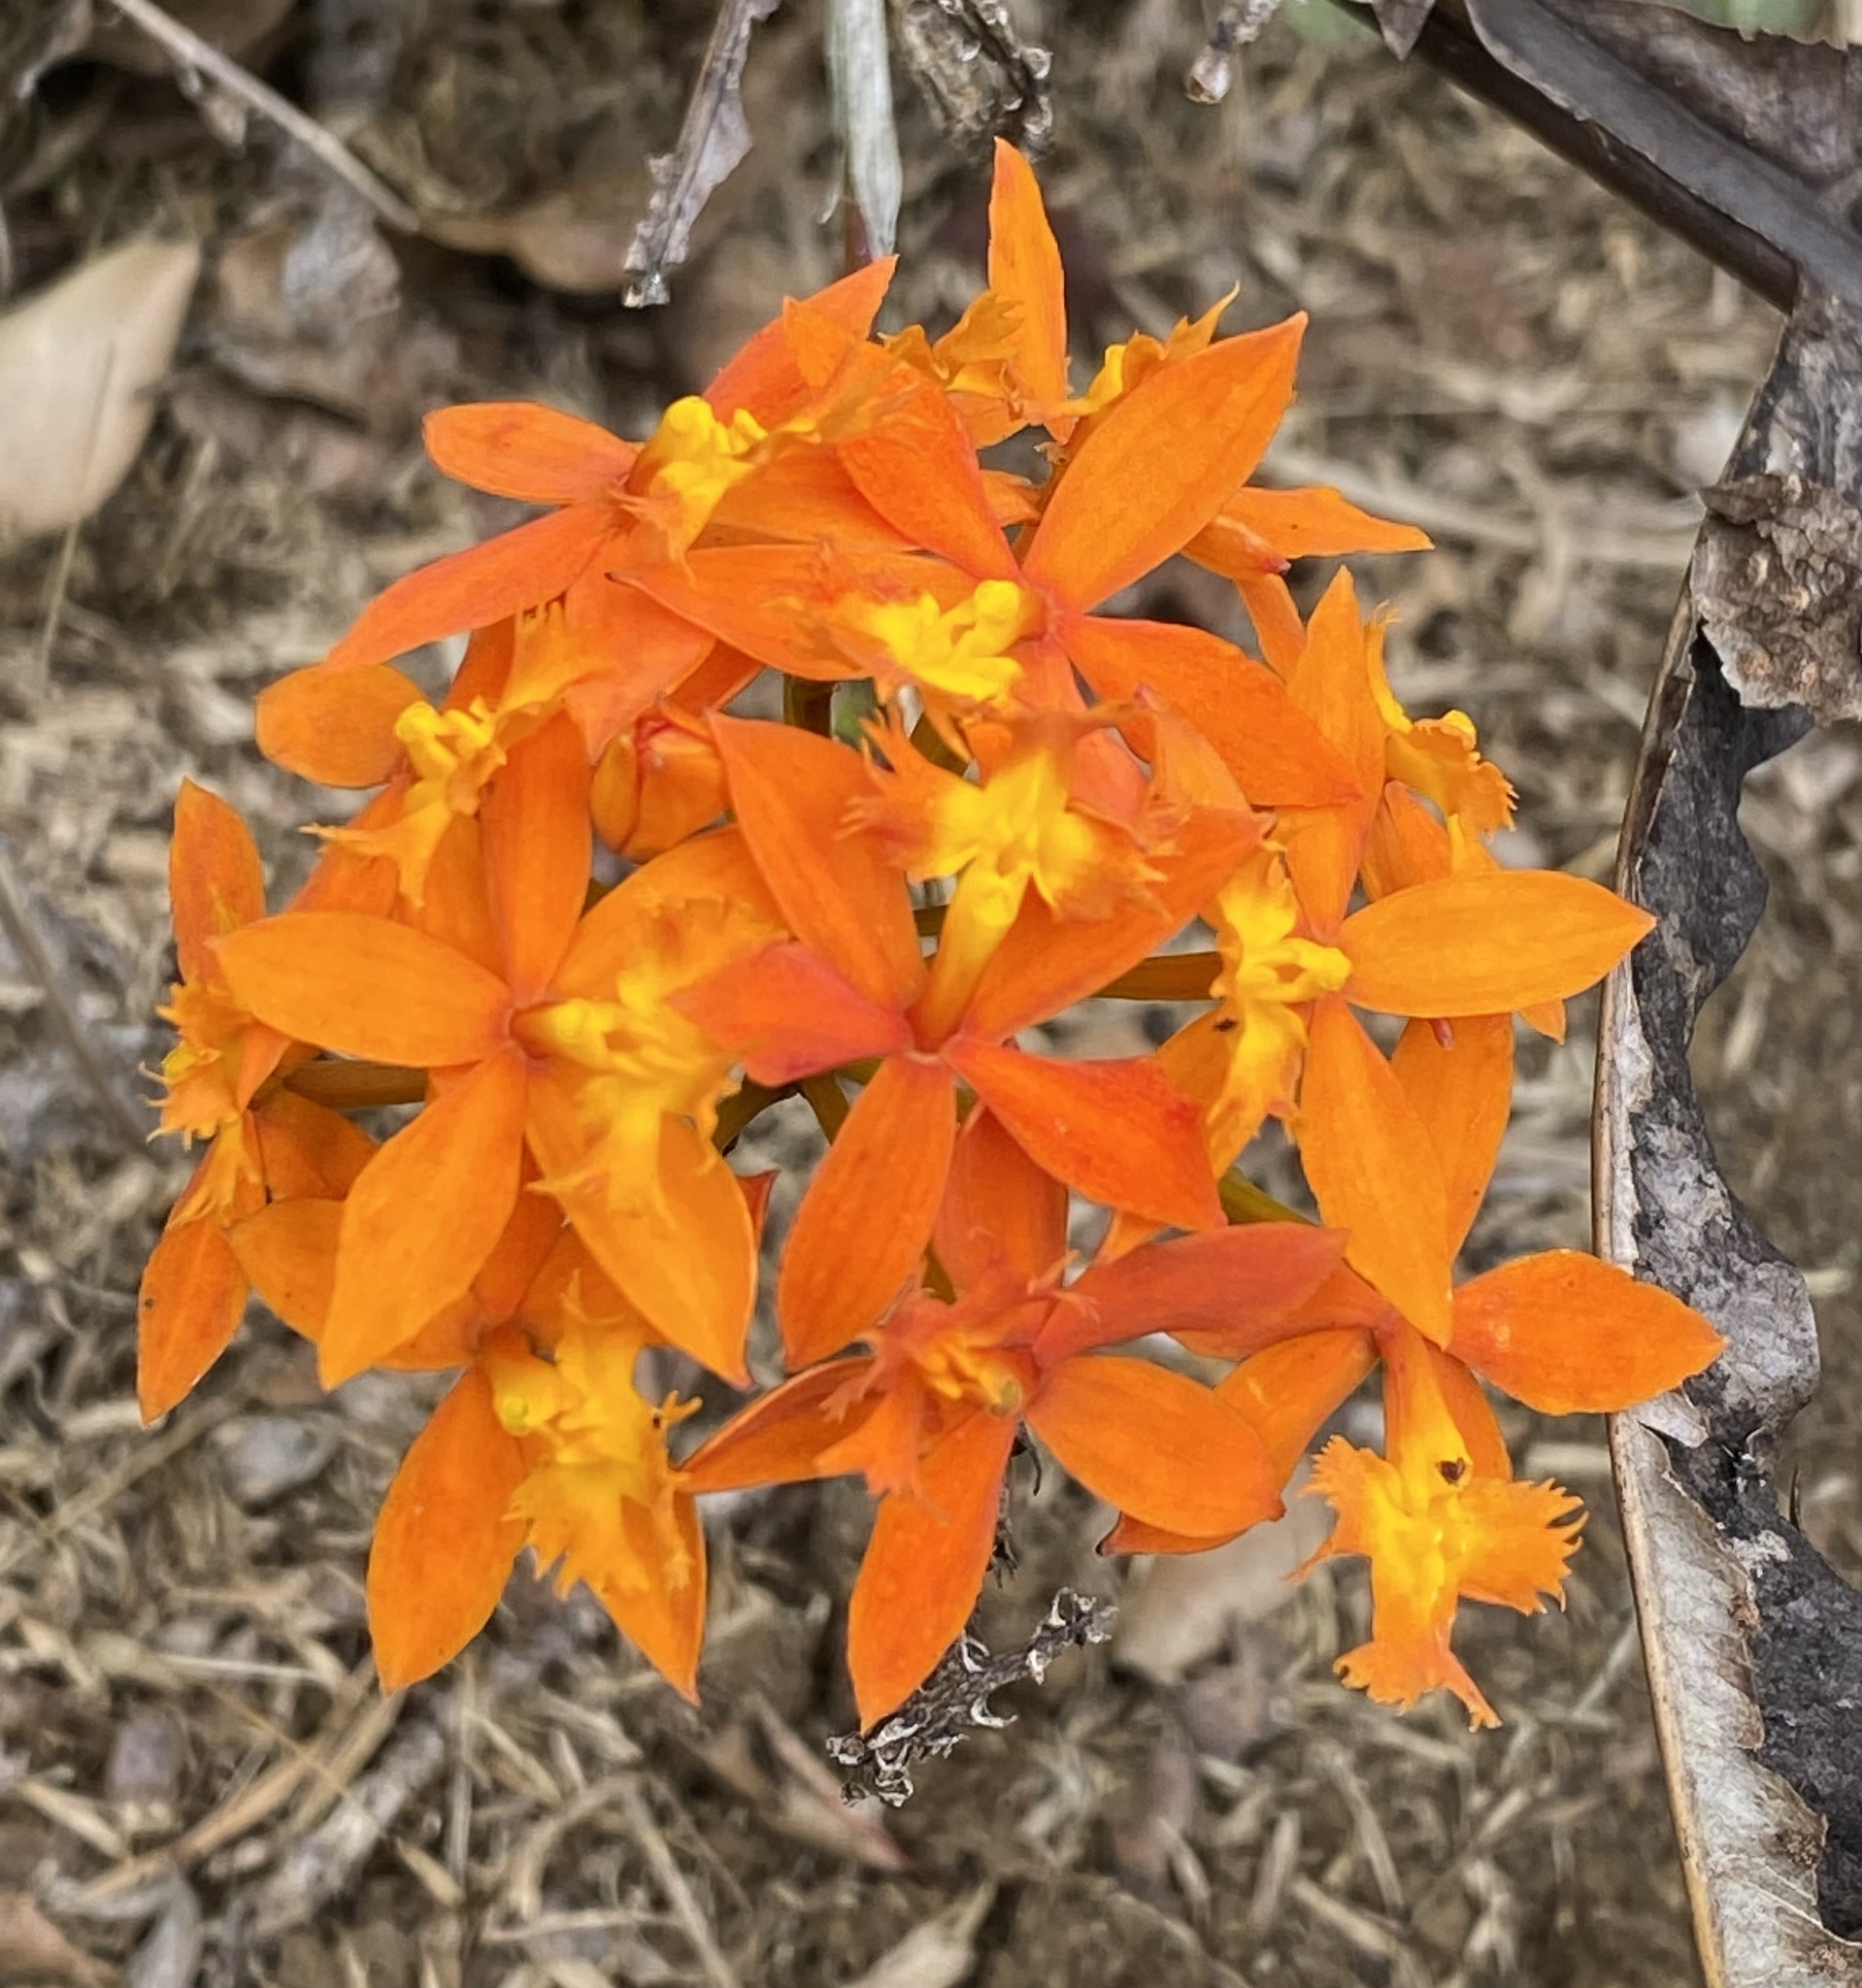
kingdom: Plantae
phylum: Tracheophyta
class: Liliopsida
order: Asparagales
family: Orchidaceae
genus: Epidendrum
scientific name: Epidendrum obrienianum
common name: O'brien's star orchid
